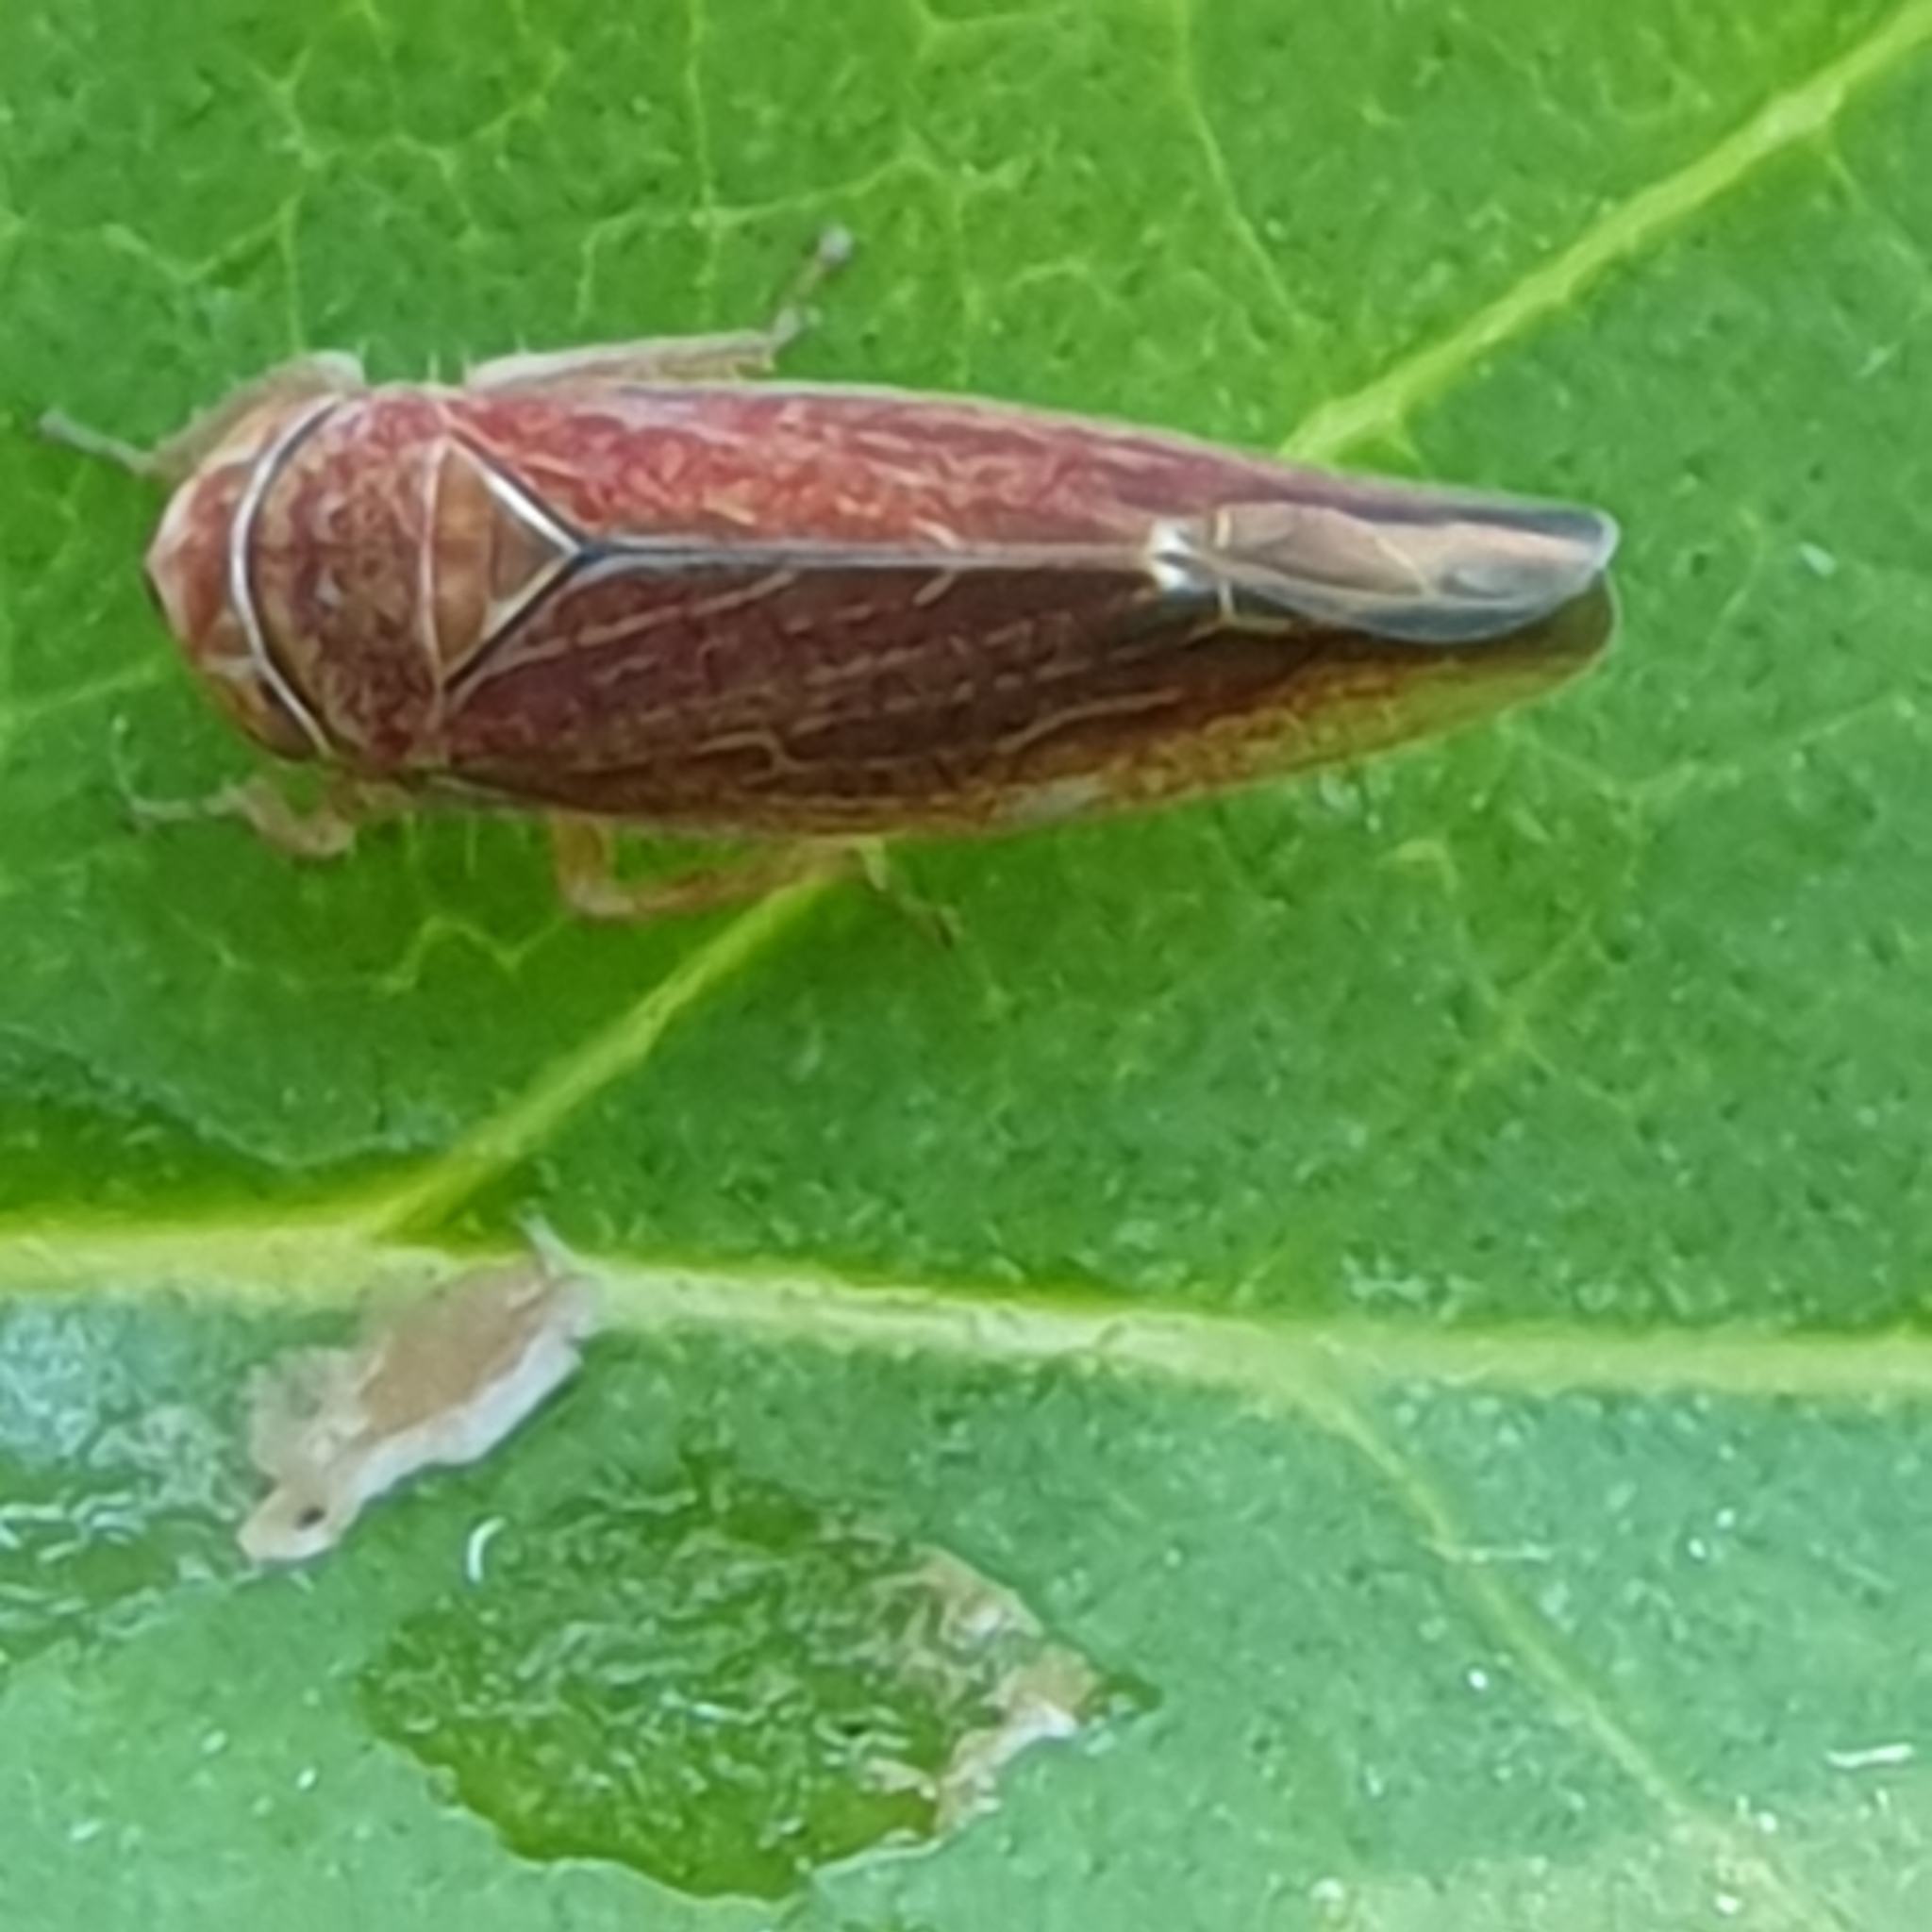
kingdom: Animalia
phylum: Arthropoda
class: Insecta
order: Hemiptera
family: Cicadellidae
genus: Idiodonus
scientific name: Idiodonus cruentatus
